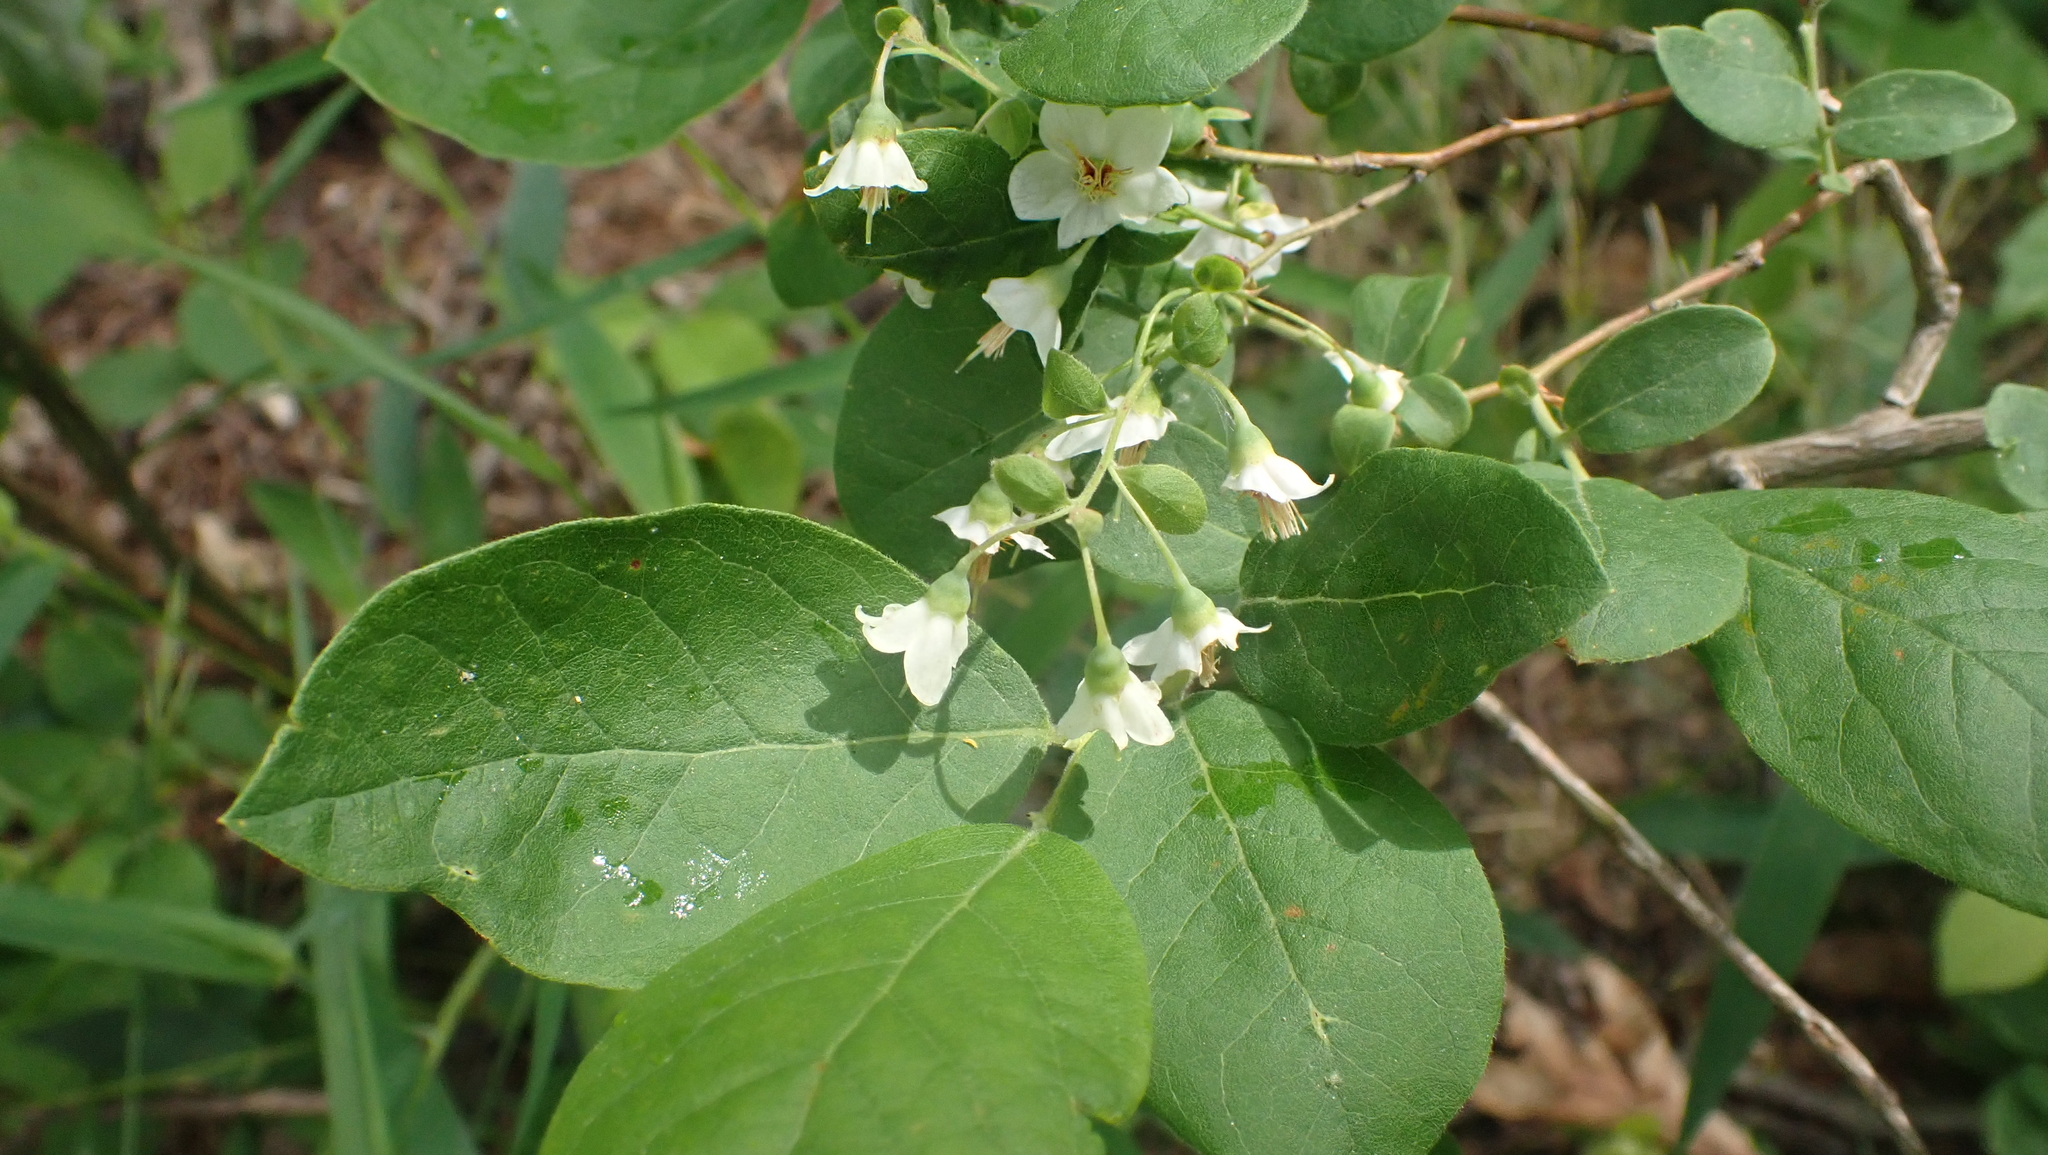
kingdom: Plantae
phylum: Tracheophyta
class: Magnoliopsida
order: Ericales
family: Ericaceae
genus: Vaccinium
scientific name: Vaccinium stamineum
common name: Deerberry
